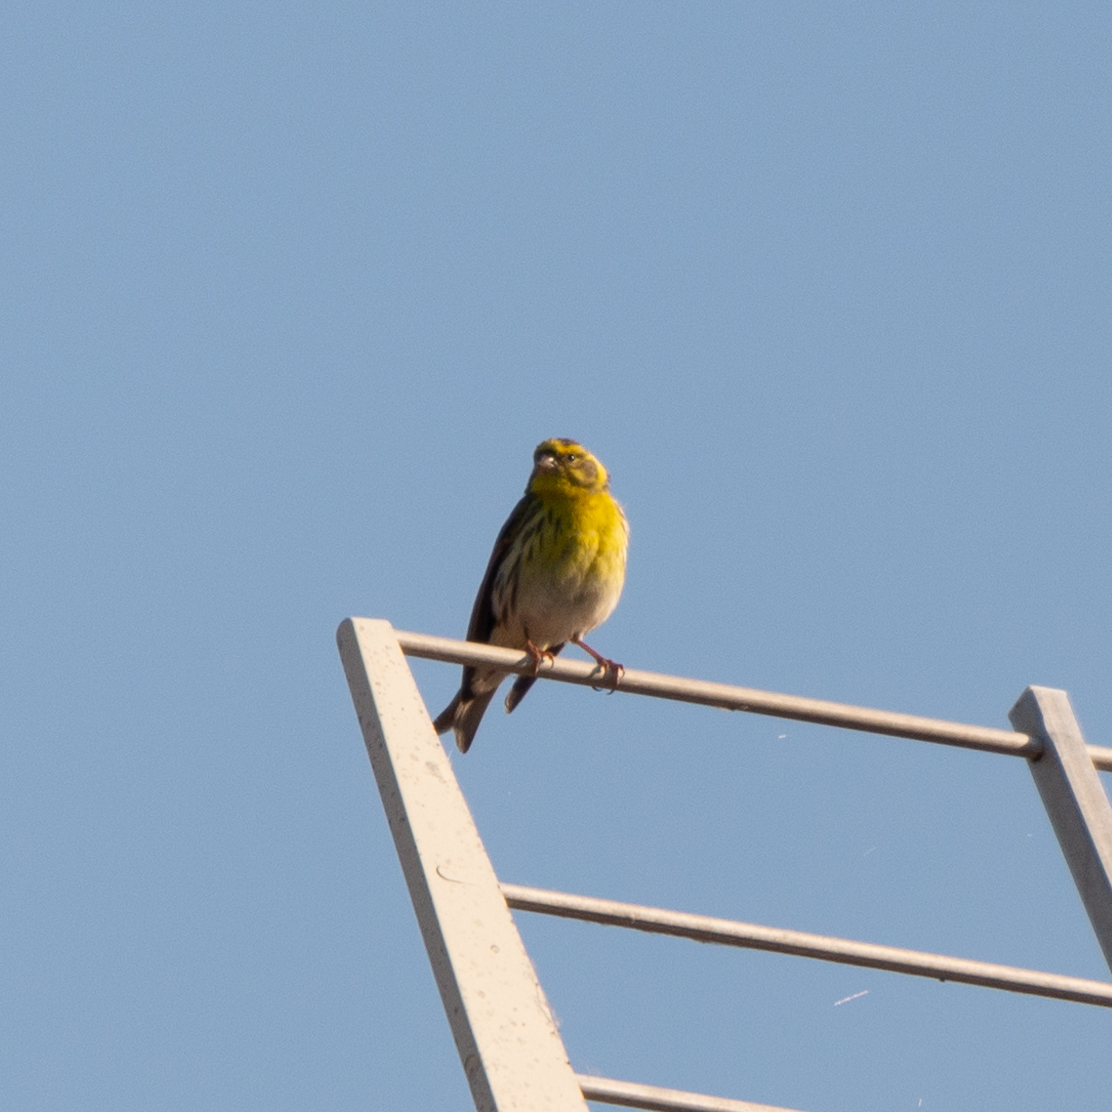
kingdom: Animalia
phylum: Chordata
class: Aves
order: Passeriformes
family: Fringillidae
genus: Serinus
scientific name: Serinus serinus
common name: European serin
